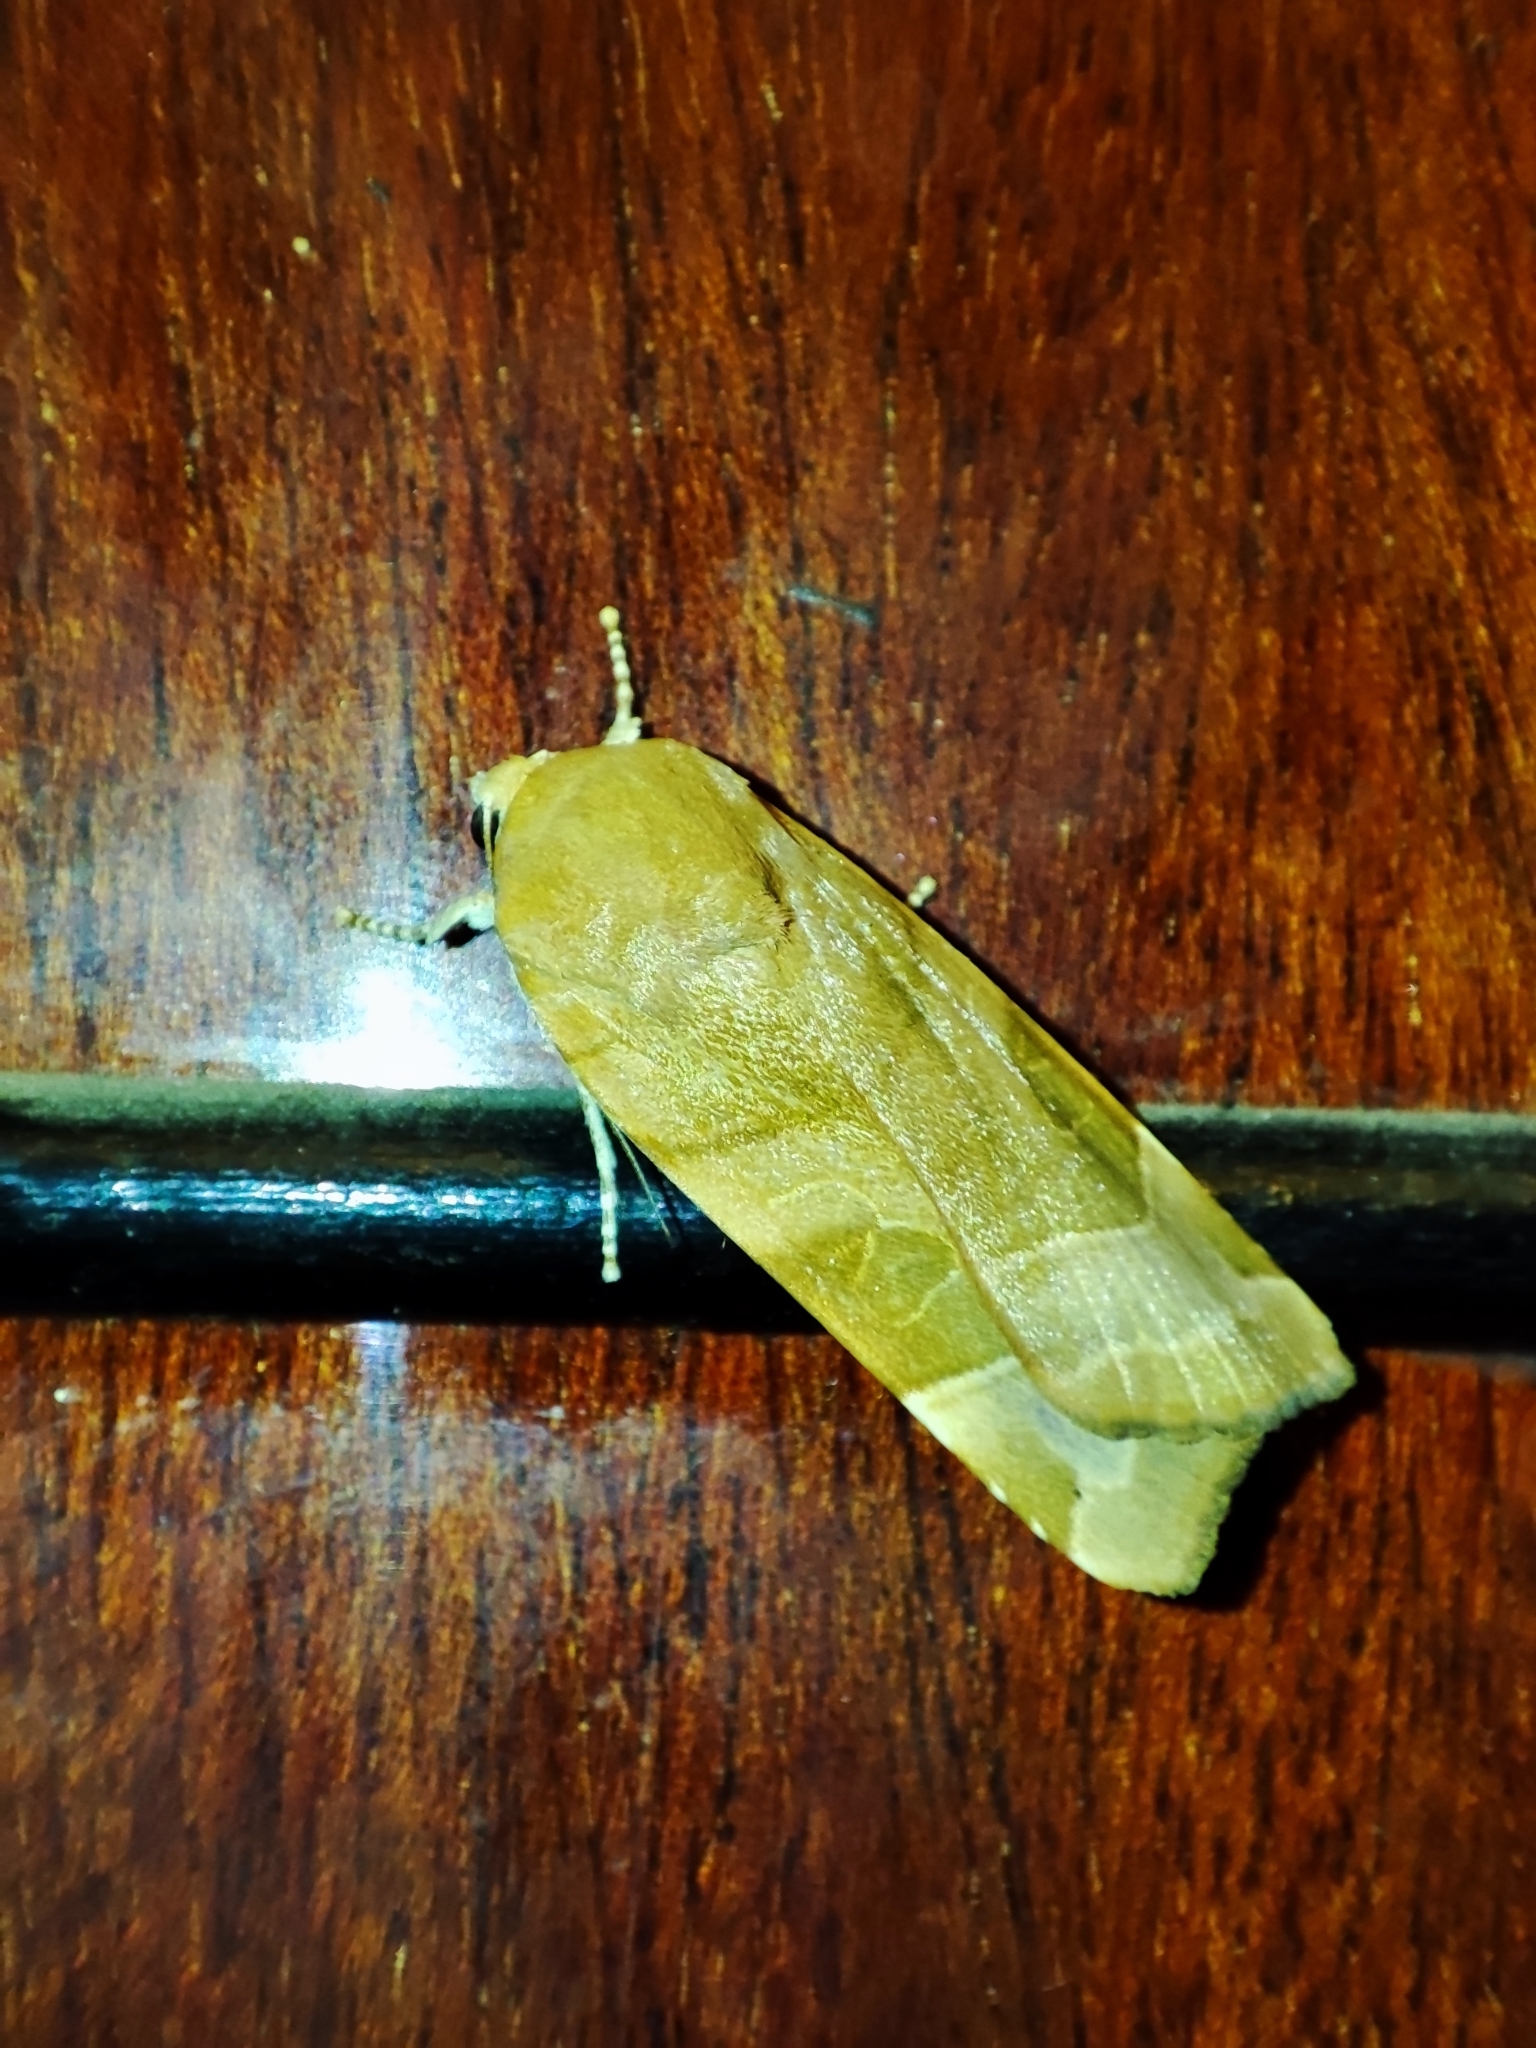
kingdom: Animalia
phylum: Arthropoda
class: Insecta
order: Lepidoptera
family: Noctuidae
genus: Noctua
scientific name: Noctua fimbriata
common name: Broad-bordered yellow underwing
